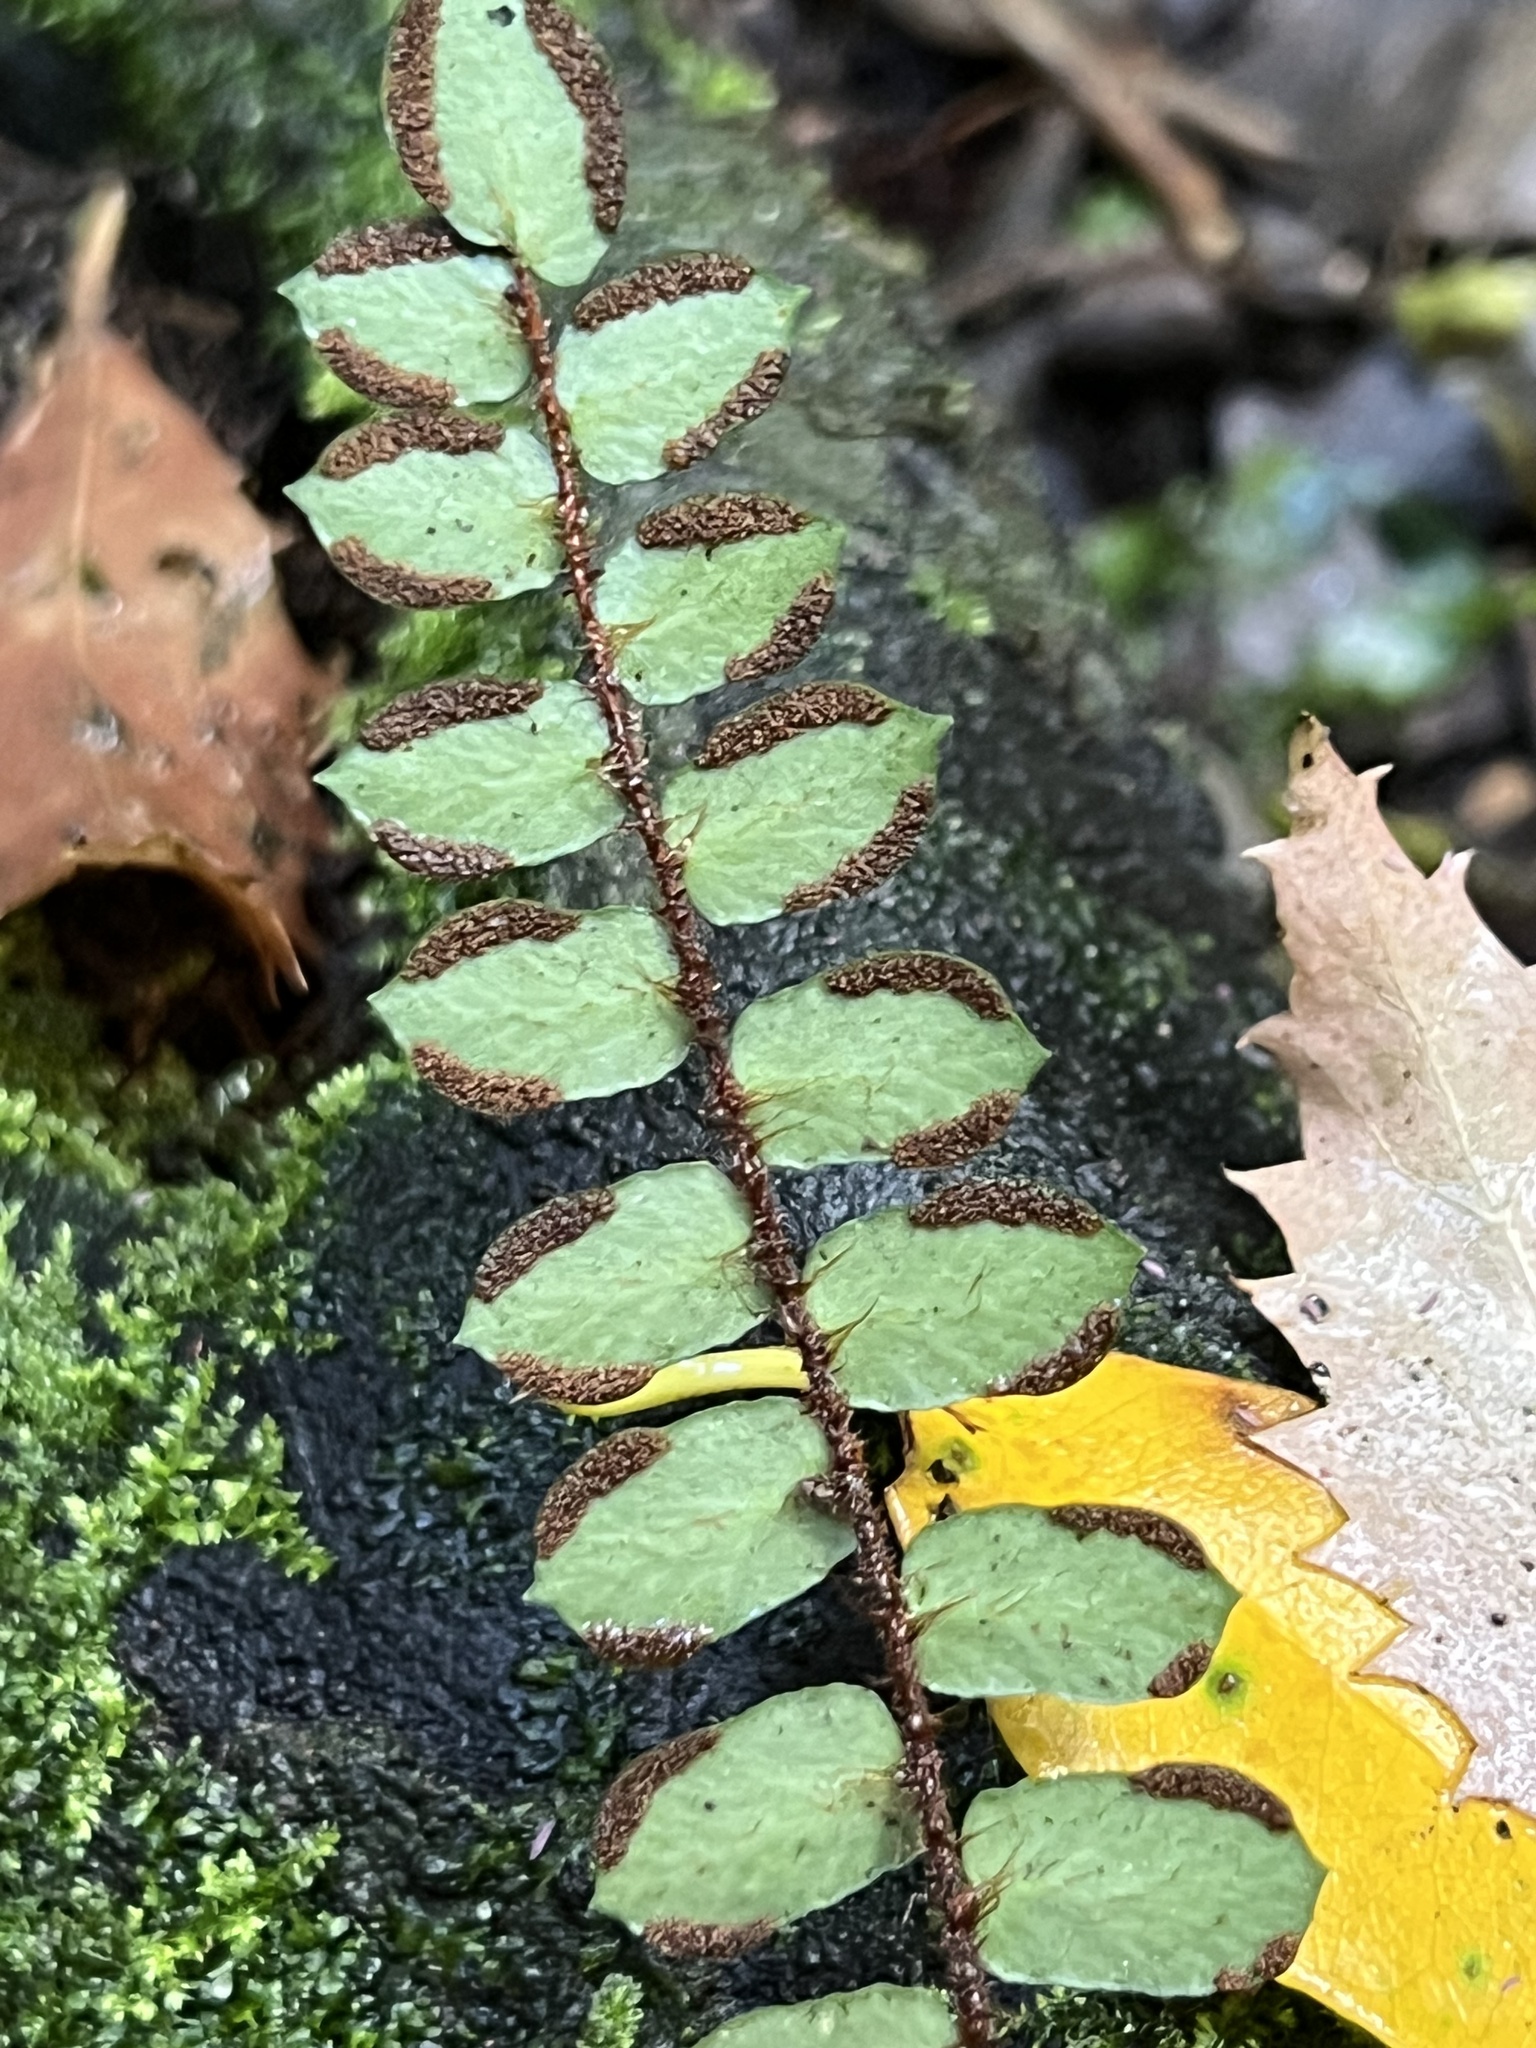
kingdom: Plantae
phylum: Tracheophyta
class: Polypodiopsida
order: Polypodiales
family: Pteridaceae
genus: Pellaea
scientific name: Pellaea rotundifolia
